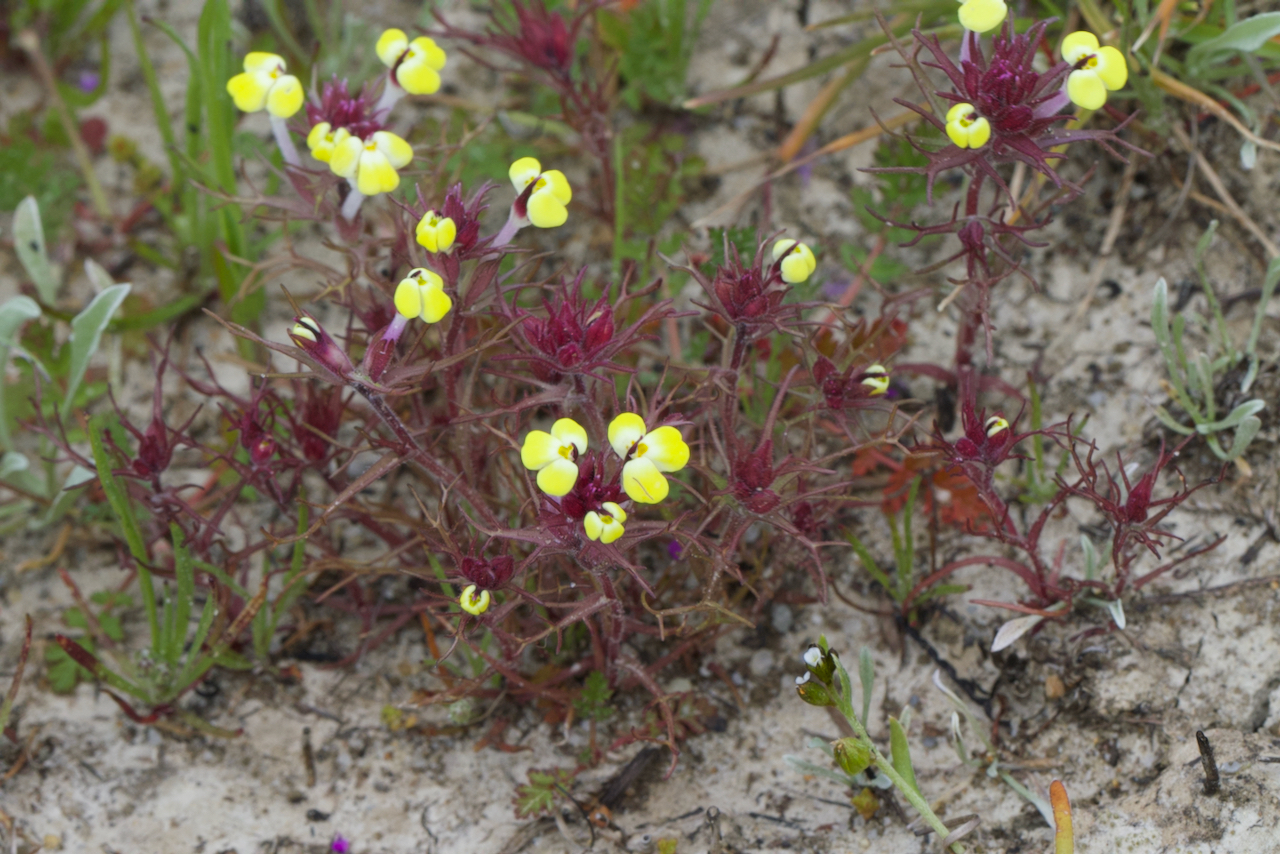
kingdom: Plantae
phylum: Tracheophyta
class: Magnoliopsida
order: Lamiales
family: Orobanchaceae
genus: Triphysaria
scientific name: Triphysaria eriantha
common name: Johnny-tuck
